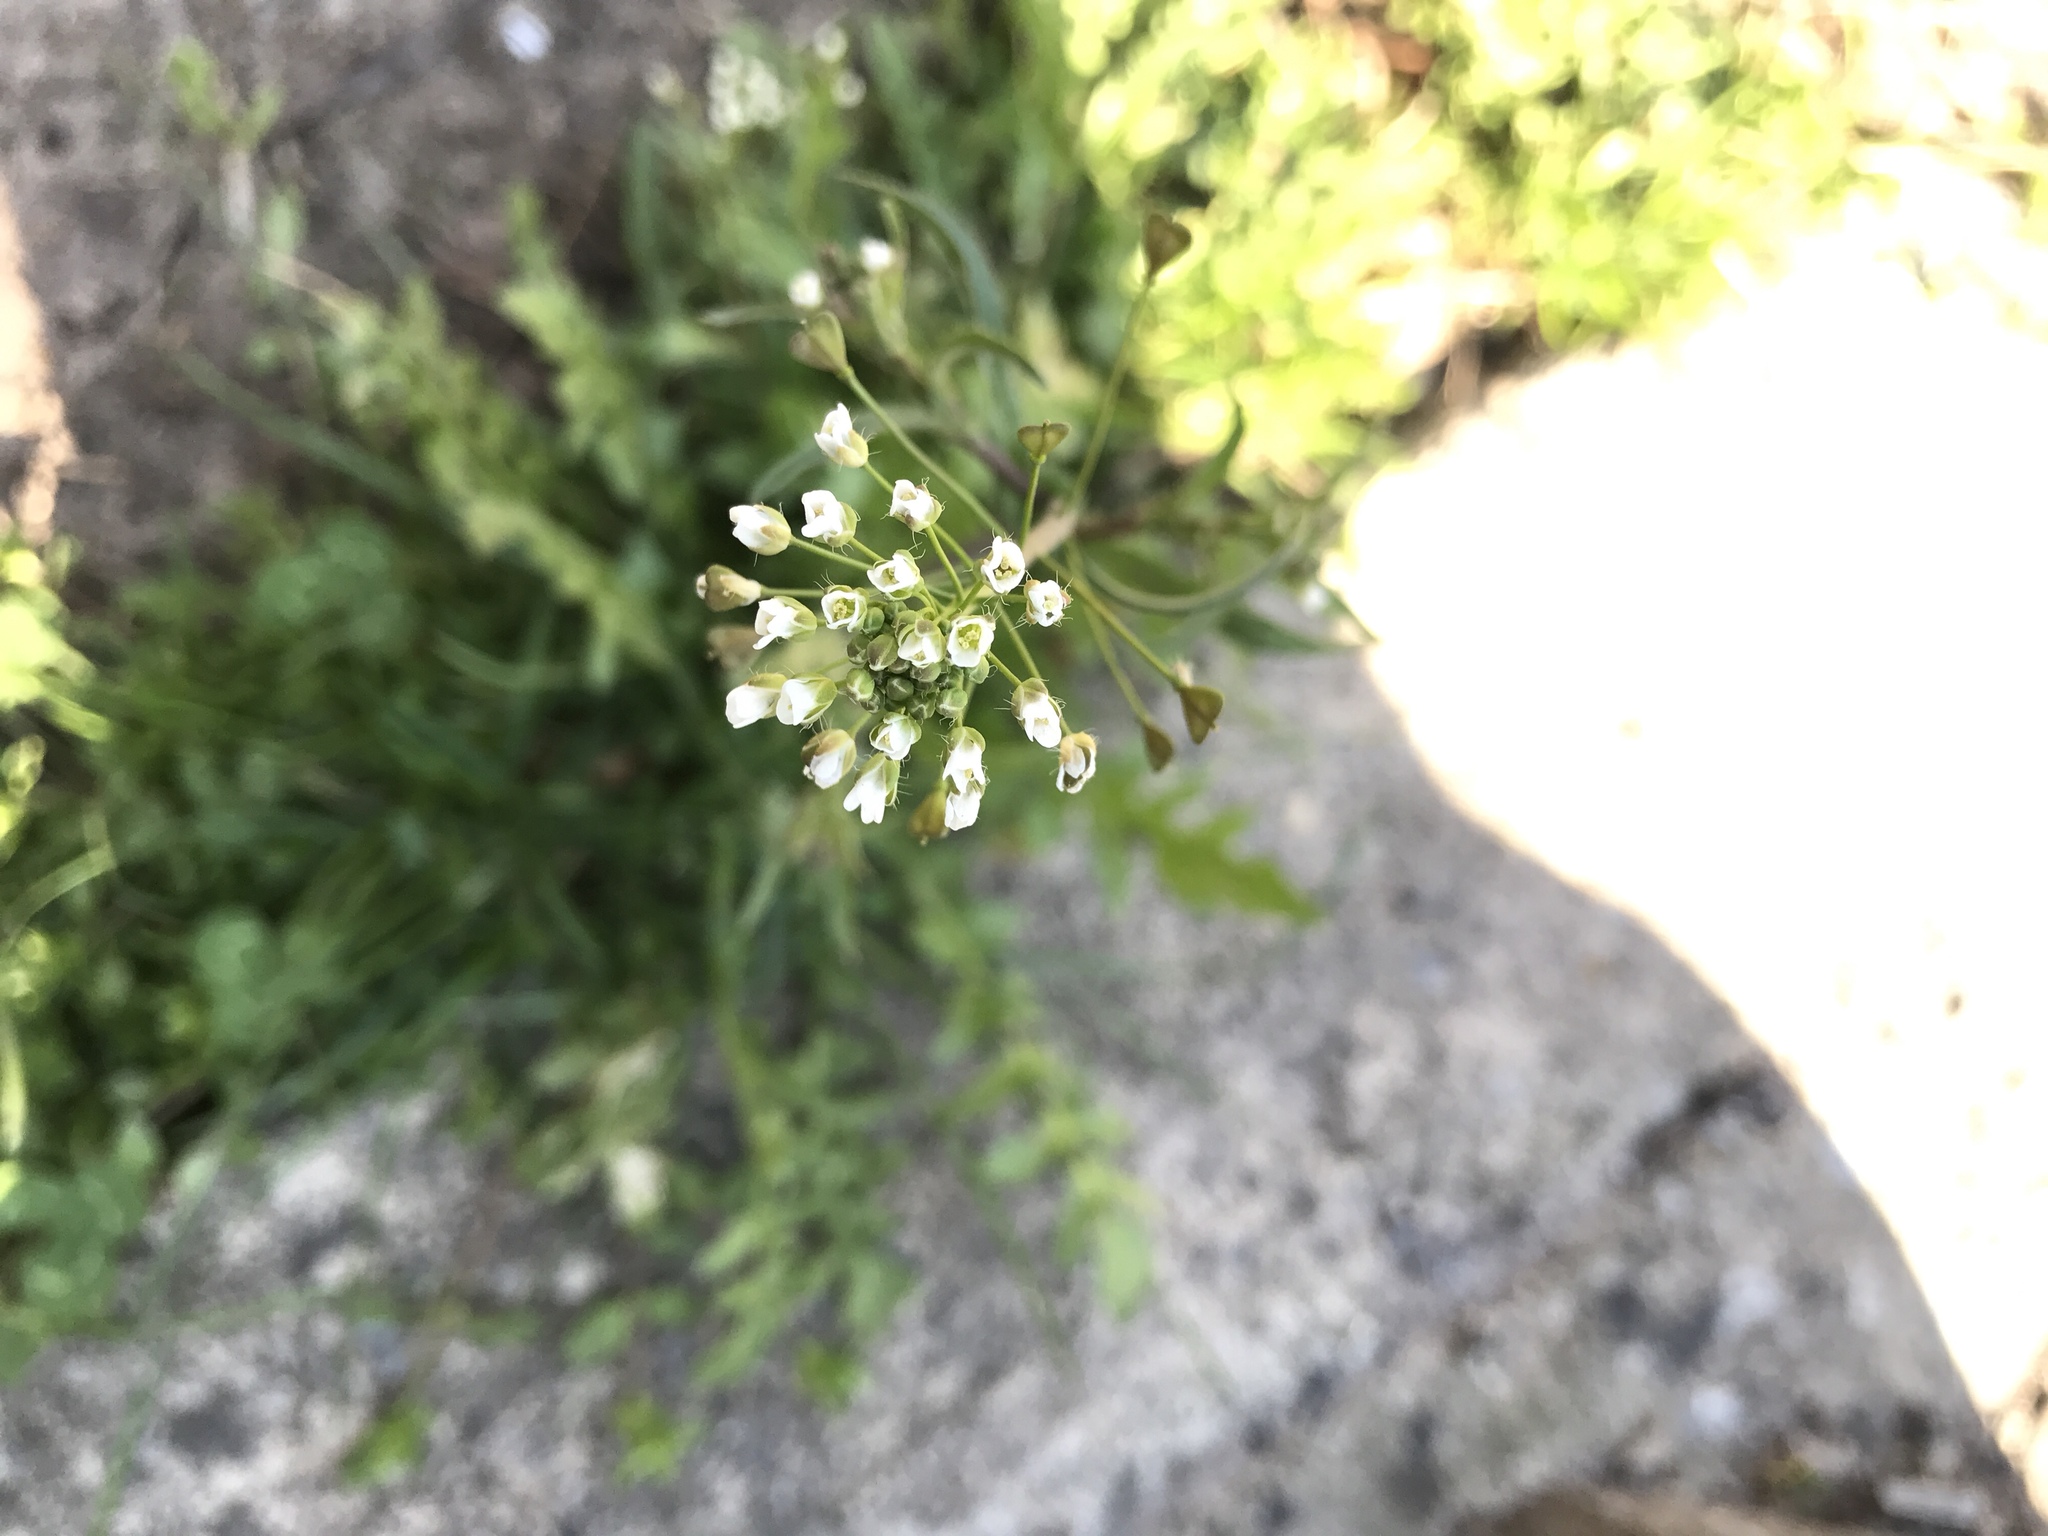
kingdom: Plantae
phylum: Tracheophyta
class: Magnoliopsida
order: Brassicales
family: Brassicaceae
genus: Capsella
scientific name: Capsella bursa-pastoris
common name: Shepherd's purse
